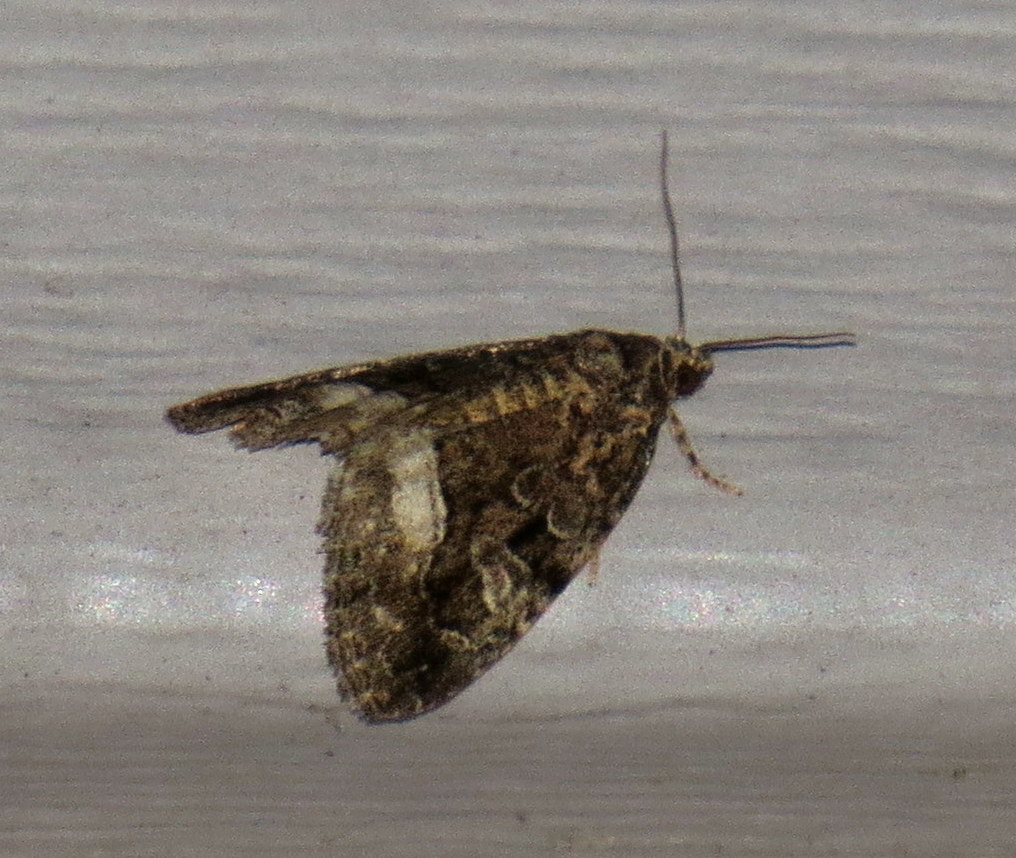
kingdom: Animalia
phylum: Arthropoda
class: Insecta
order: Lepidoptera
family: Noctuidae
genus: Protodeltote
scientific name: Protodeltote muscosula
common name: Large mossy glyph
